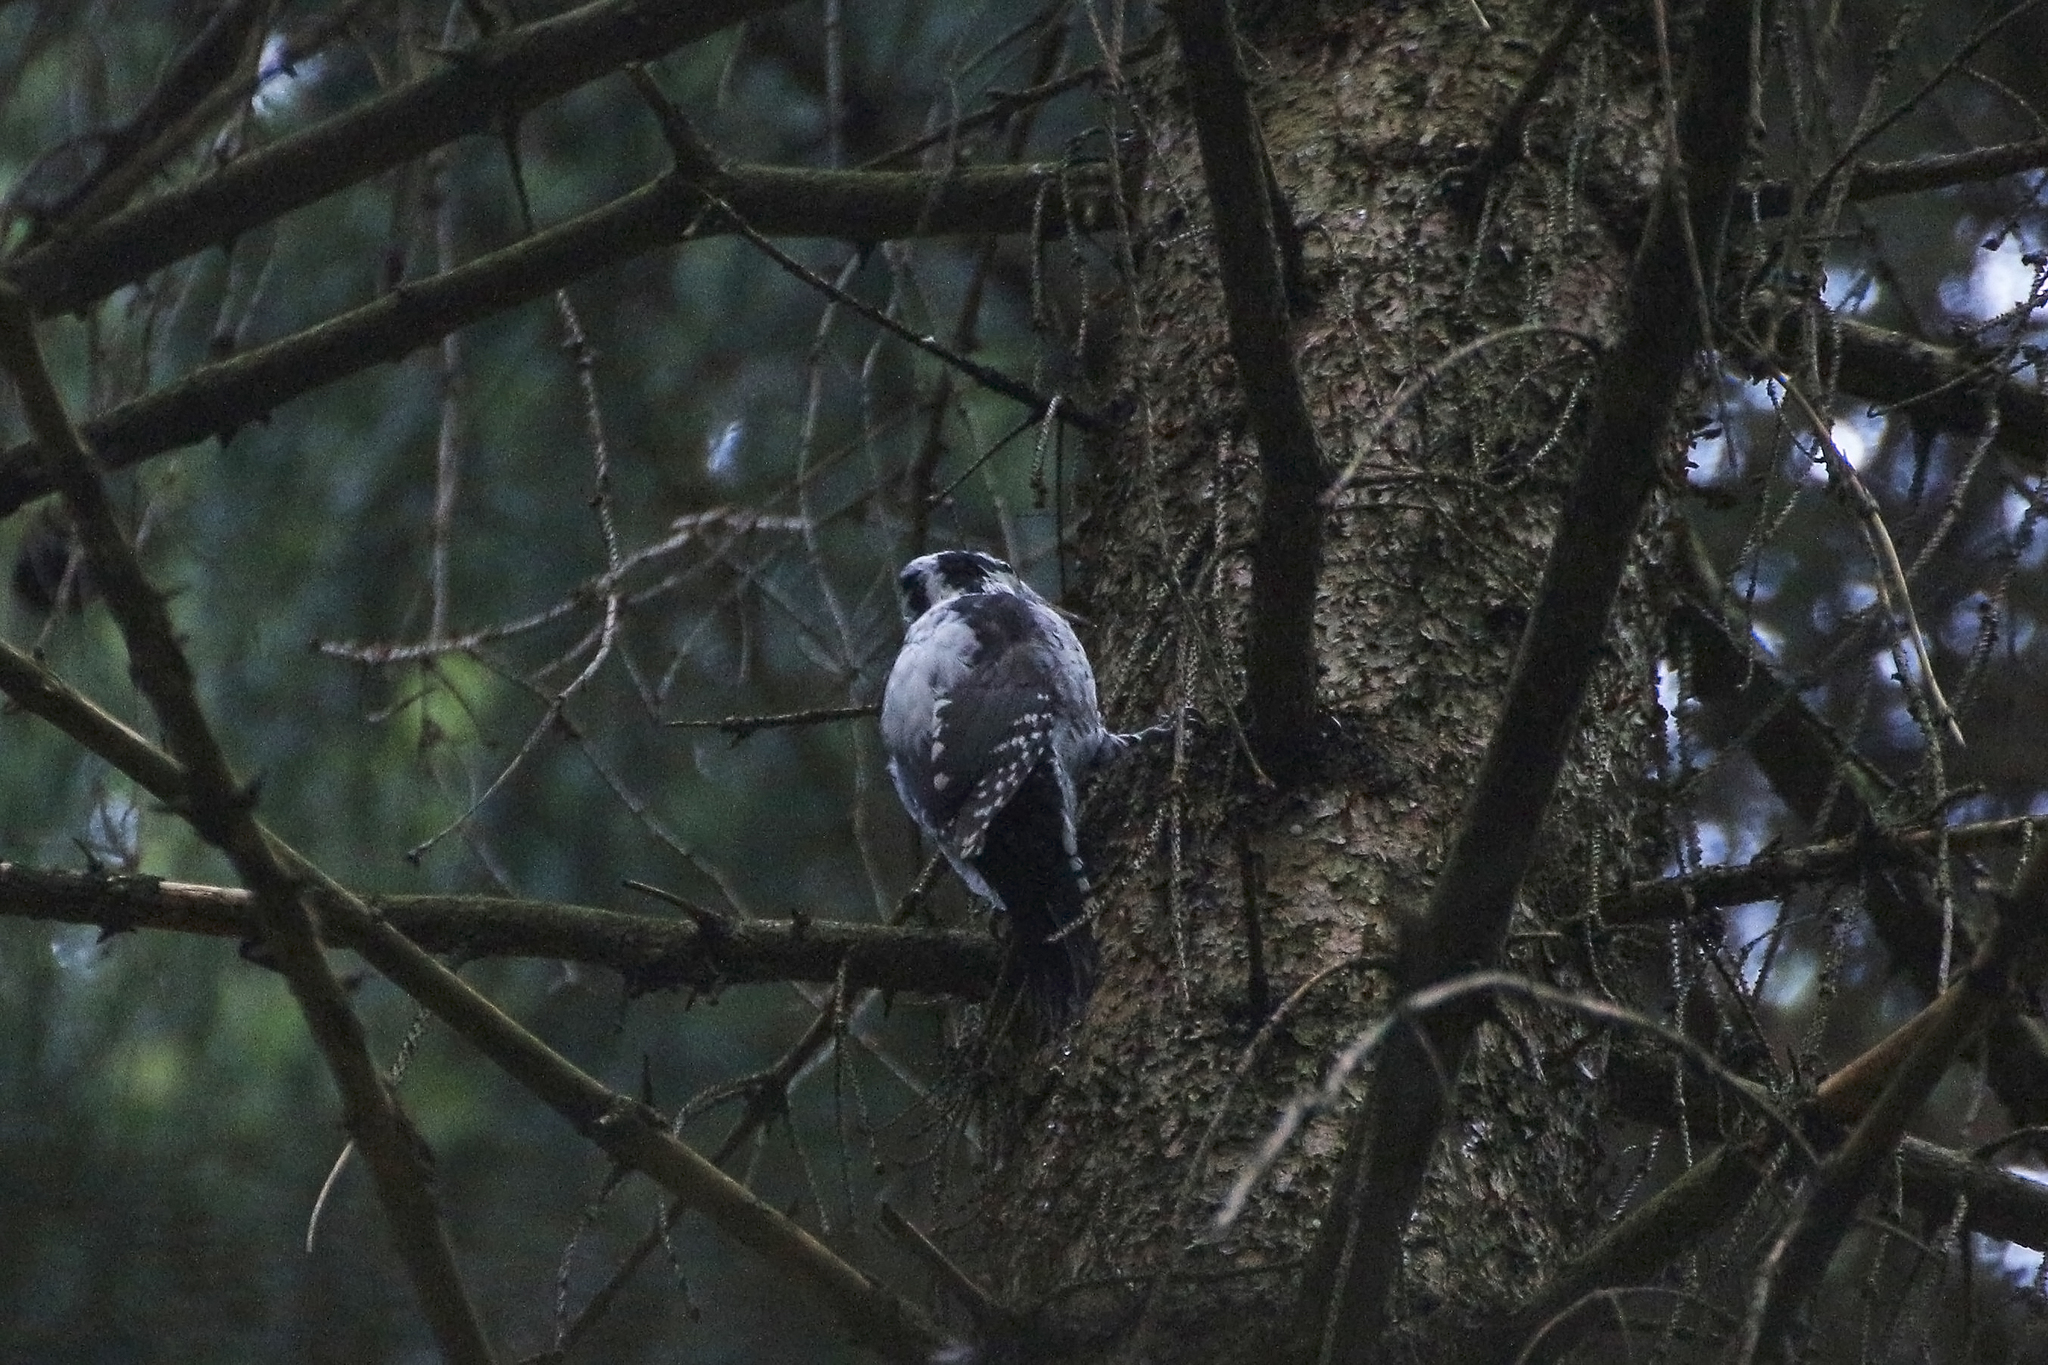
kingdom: Animalia
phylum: Chordata
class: Aves
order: Piciformes
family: Picidae
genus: Picoides
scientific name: Picoides tridactylus
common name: Eurasian three-toed woodpecker
